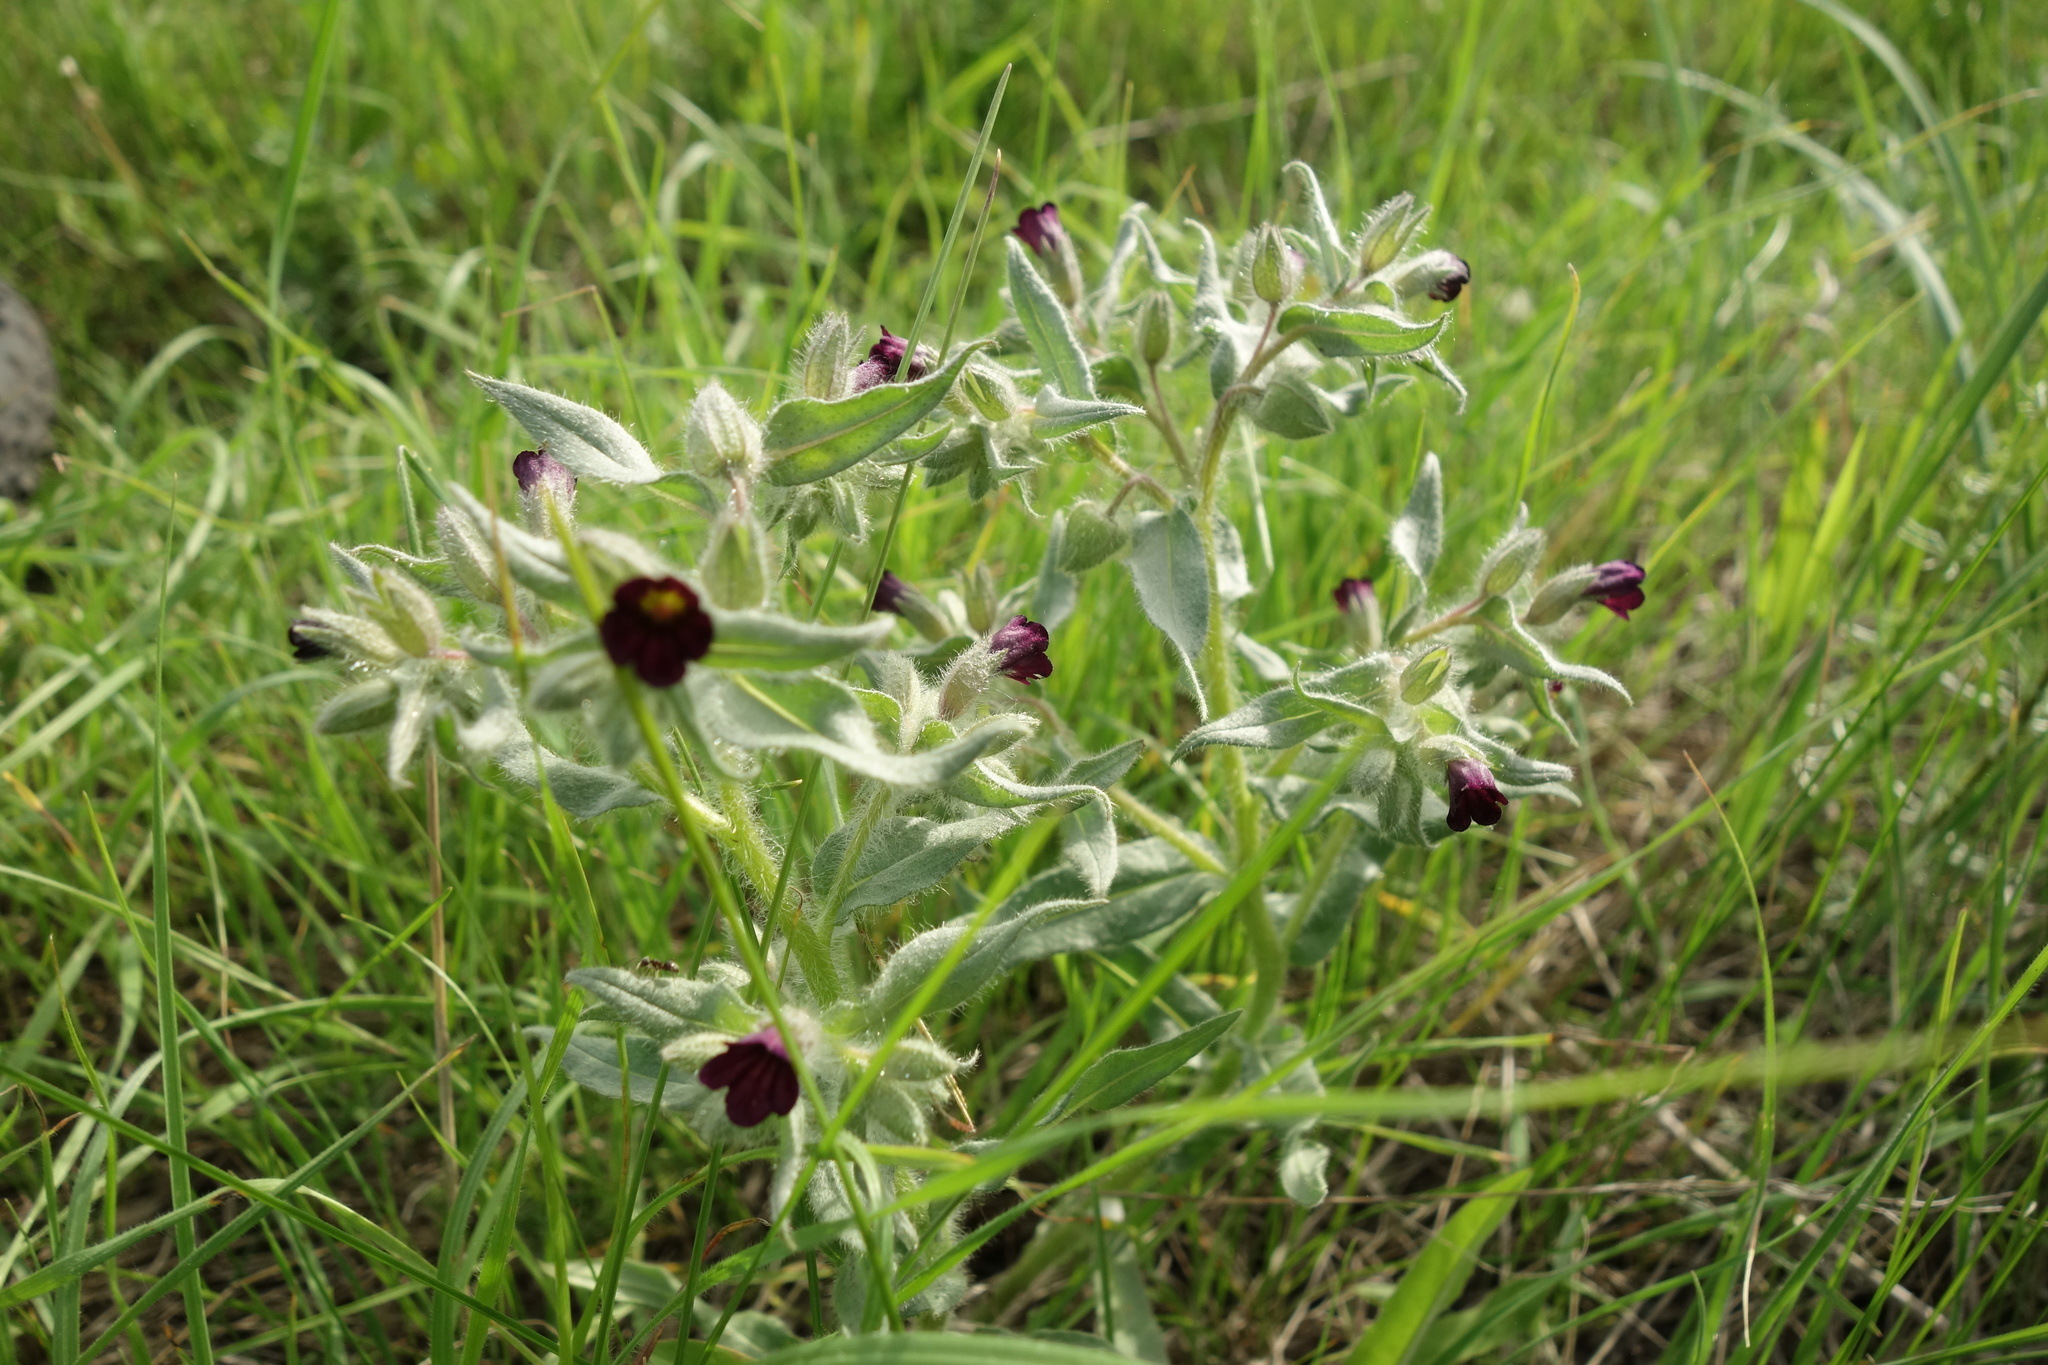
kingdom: Plantae
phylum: Tracheophyta
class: Magnoliopsida
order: Boraginales
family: Boraginaceae
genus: Nonea
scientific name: Nonea pulla
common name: Brown nonea
